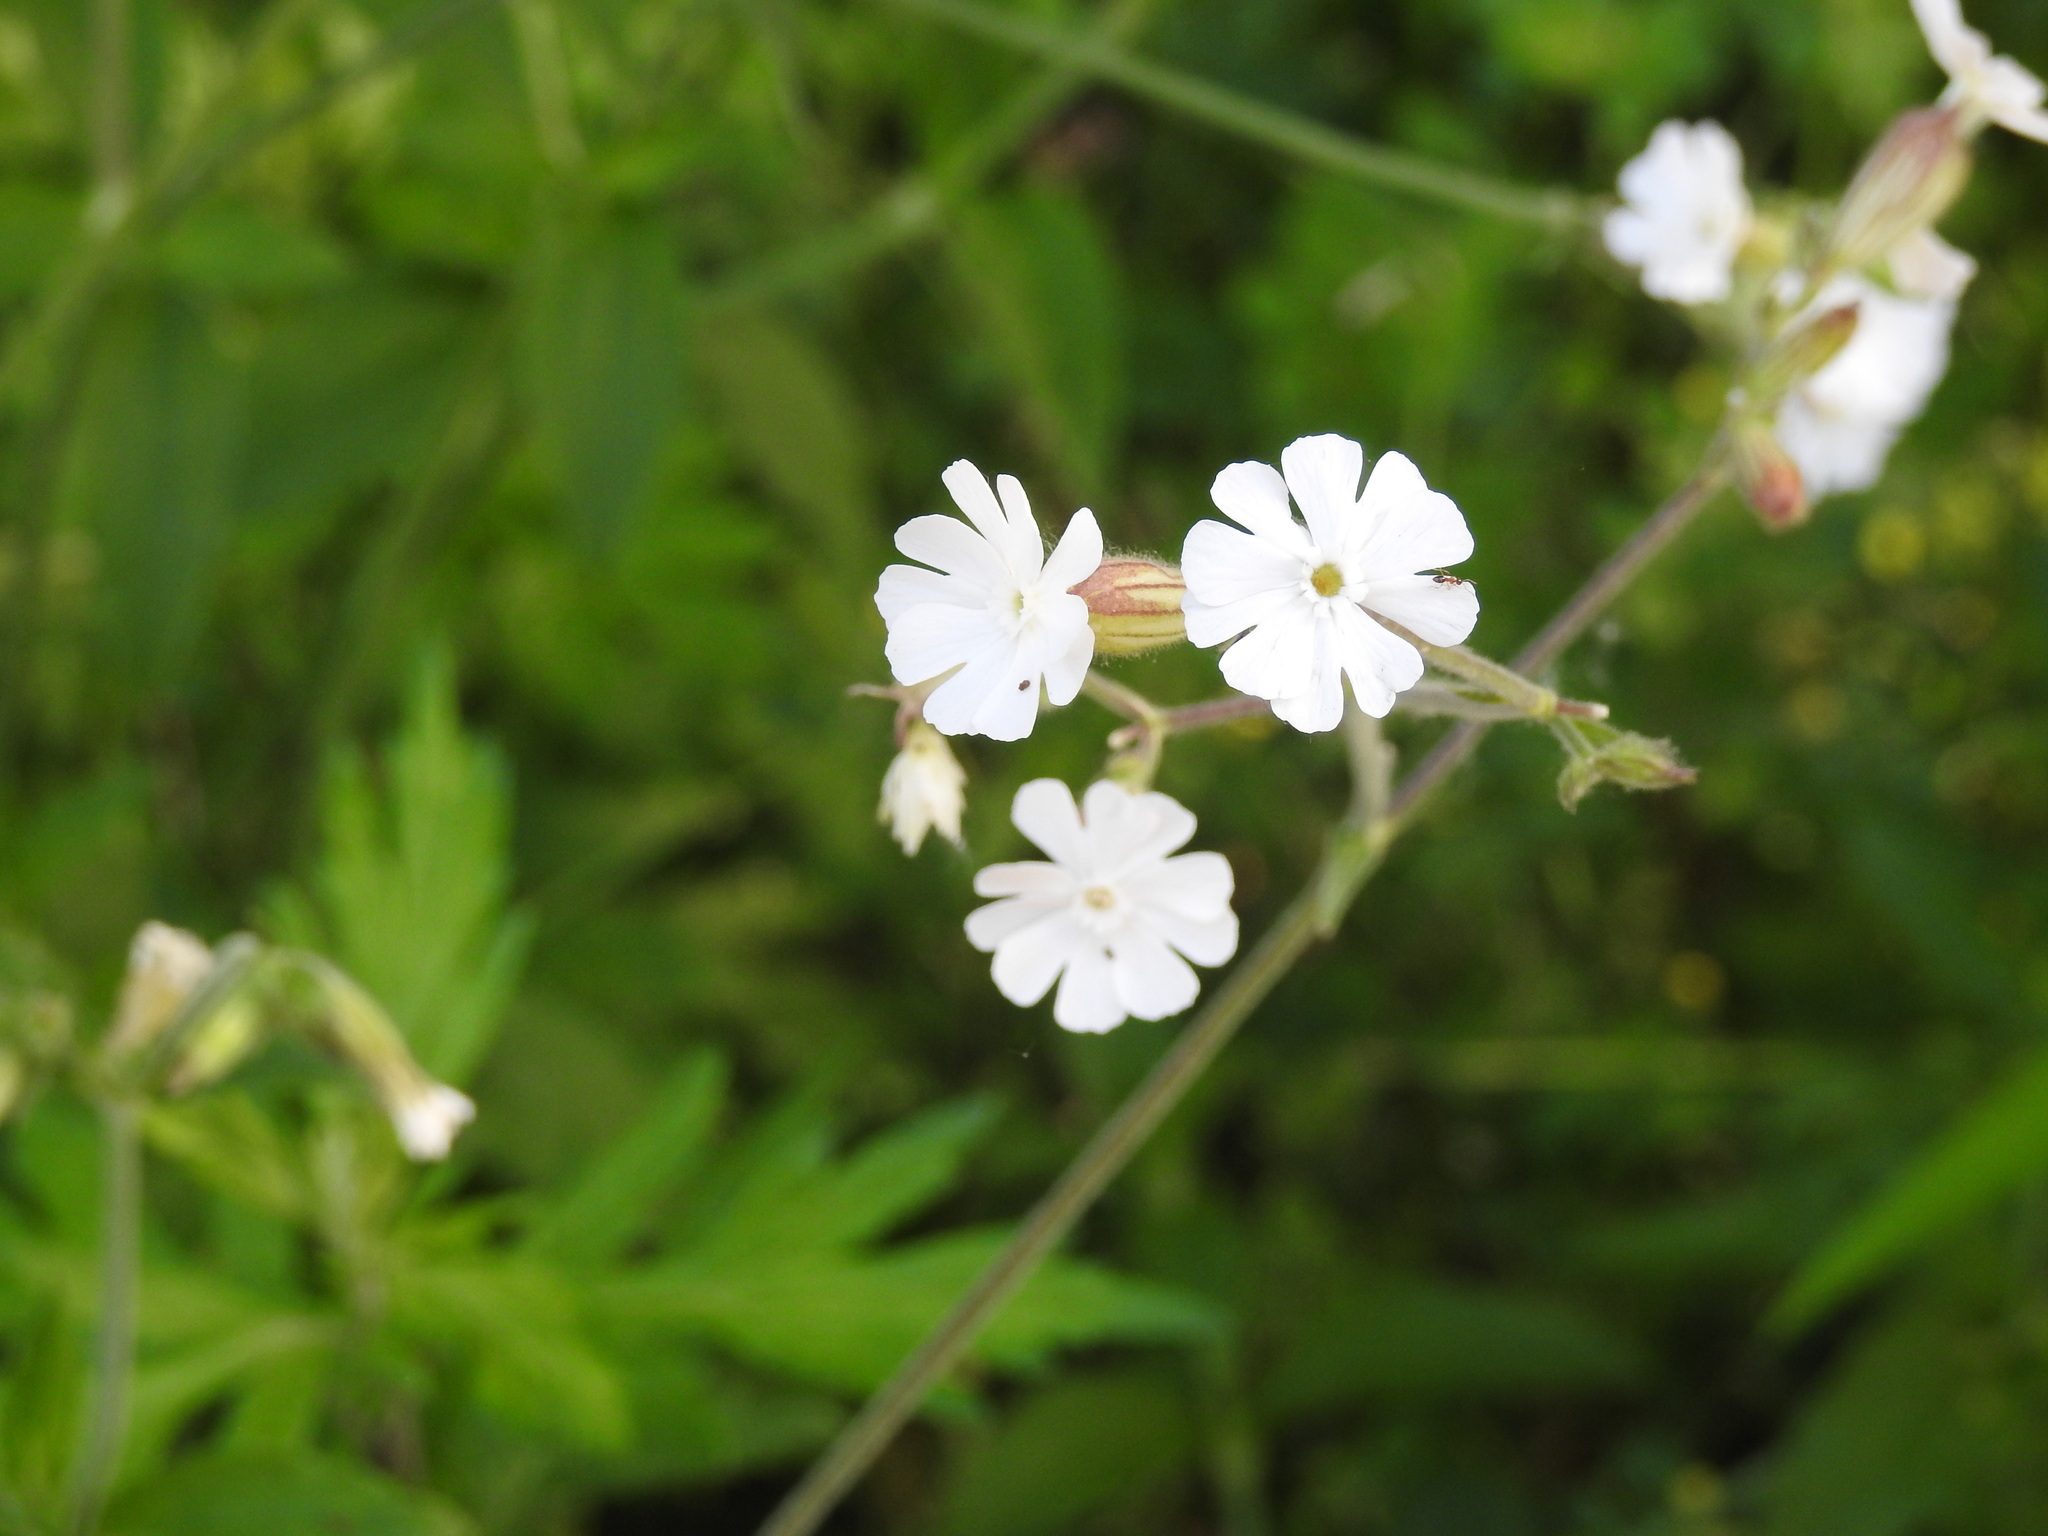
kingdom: Plantae
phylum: Tracheophyta
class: Magnoliopsida
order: Caryophyllales
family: Caryophyllaceae
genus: Silene
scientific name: Silene latifolia
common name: White campion
